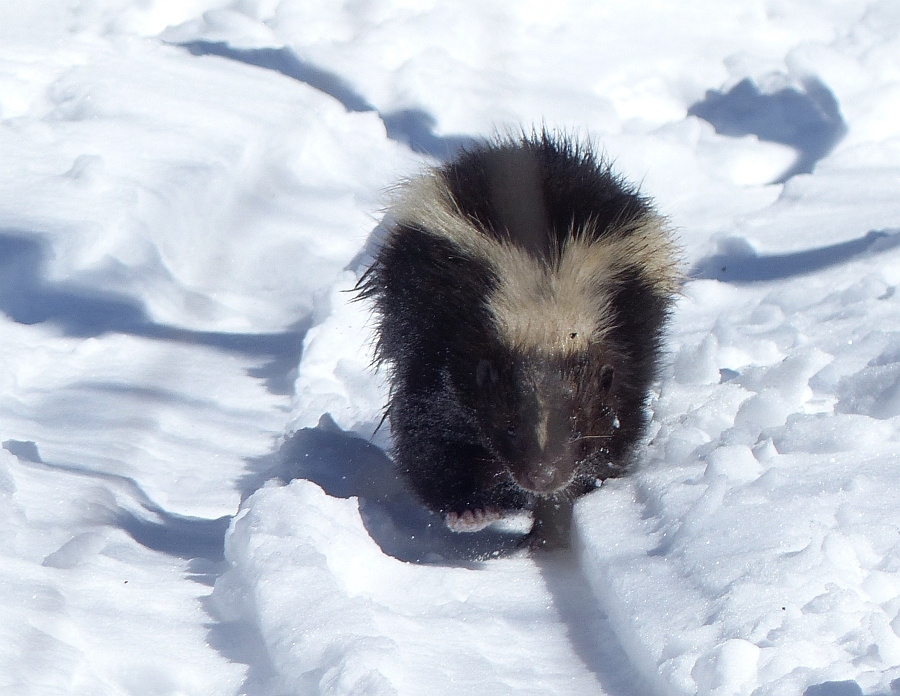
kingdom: Animalia
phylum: Chordata
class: Mammalia
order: Carnivora
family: Mephitidae
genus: Mephitis
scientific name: Mephitis mephitis
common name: Striped skunk
